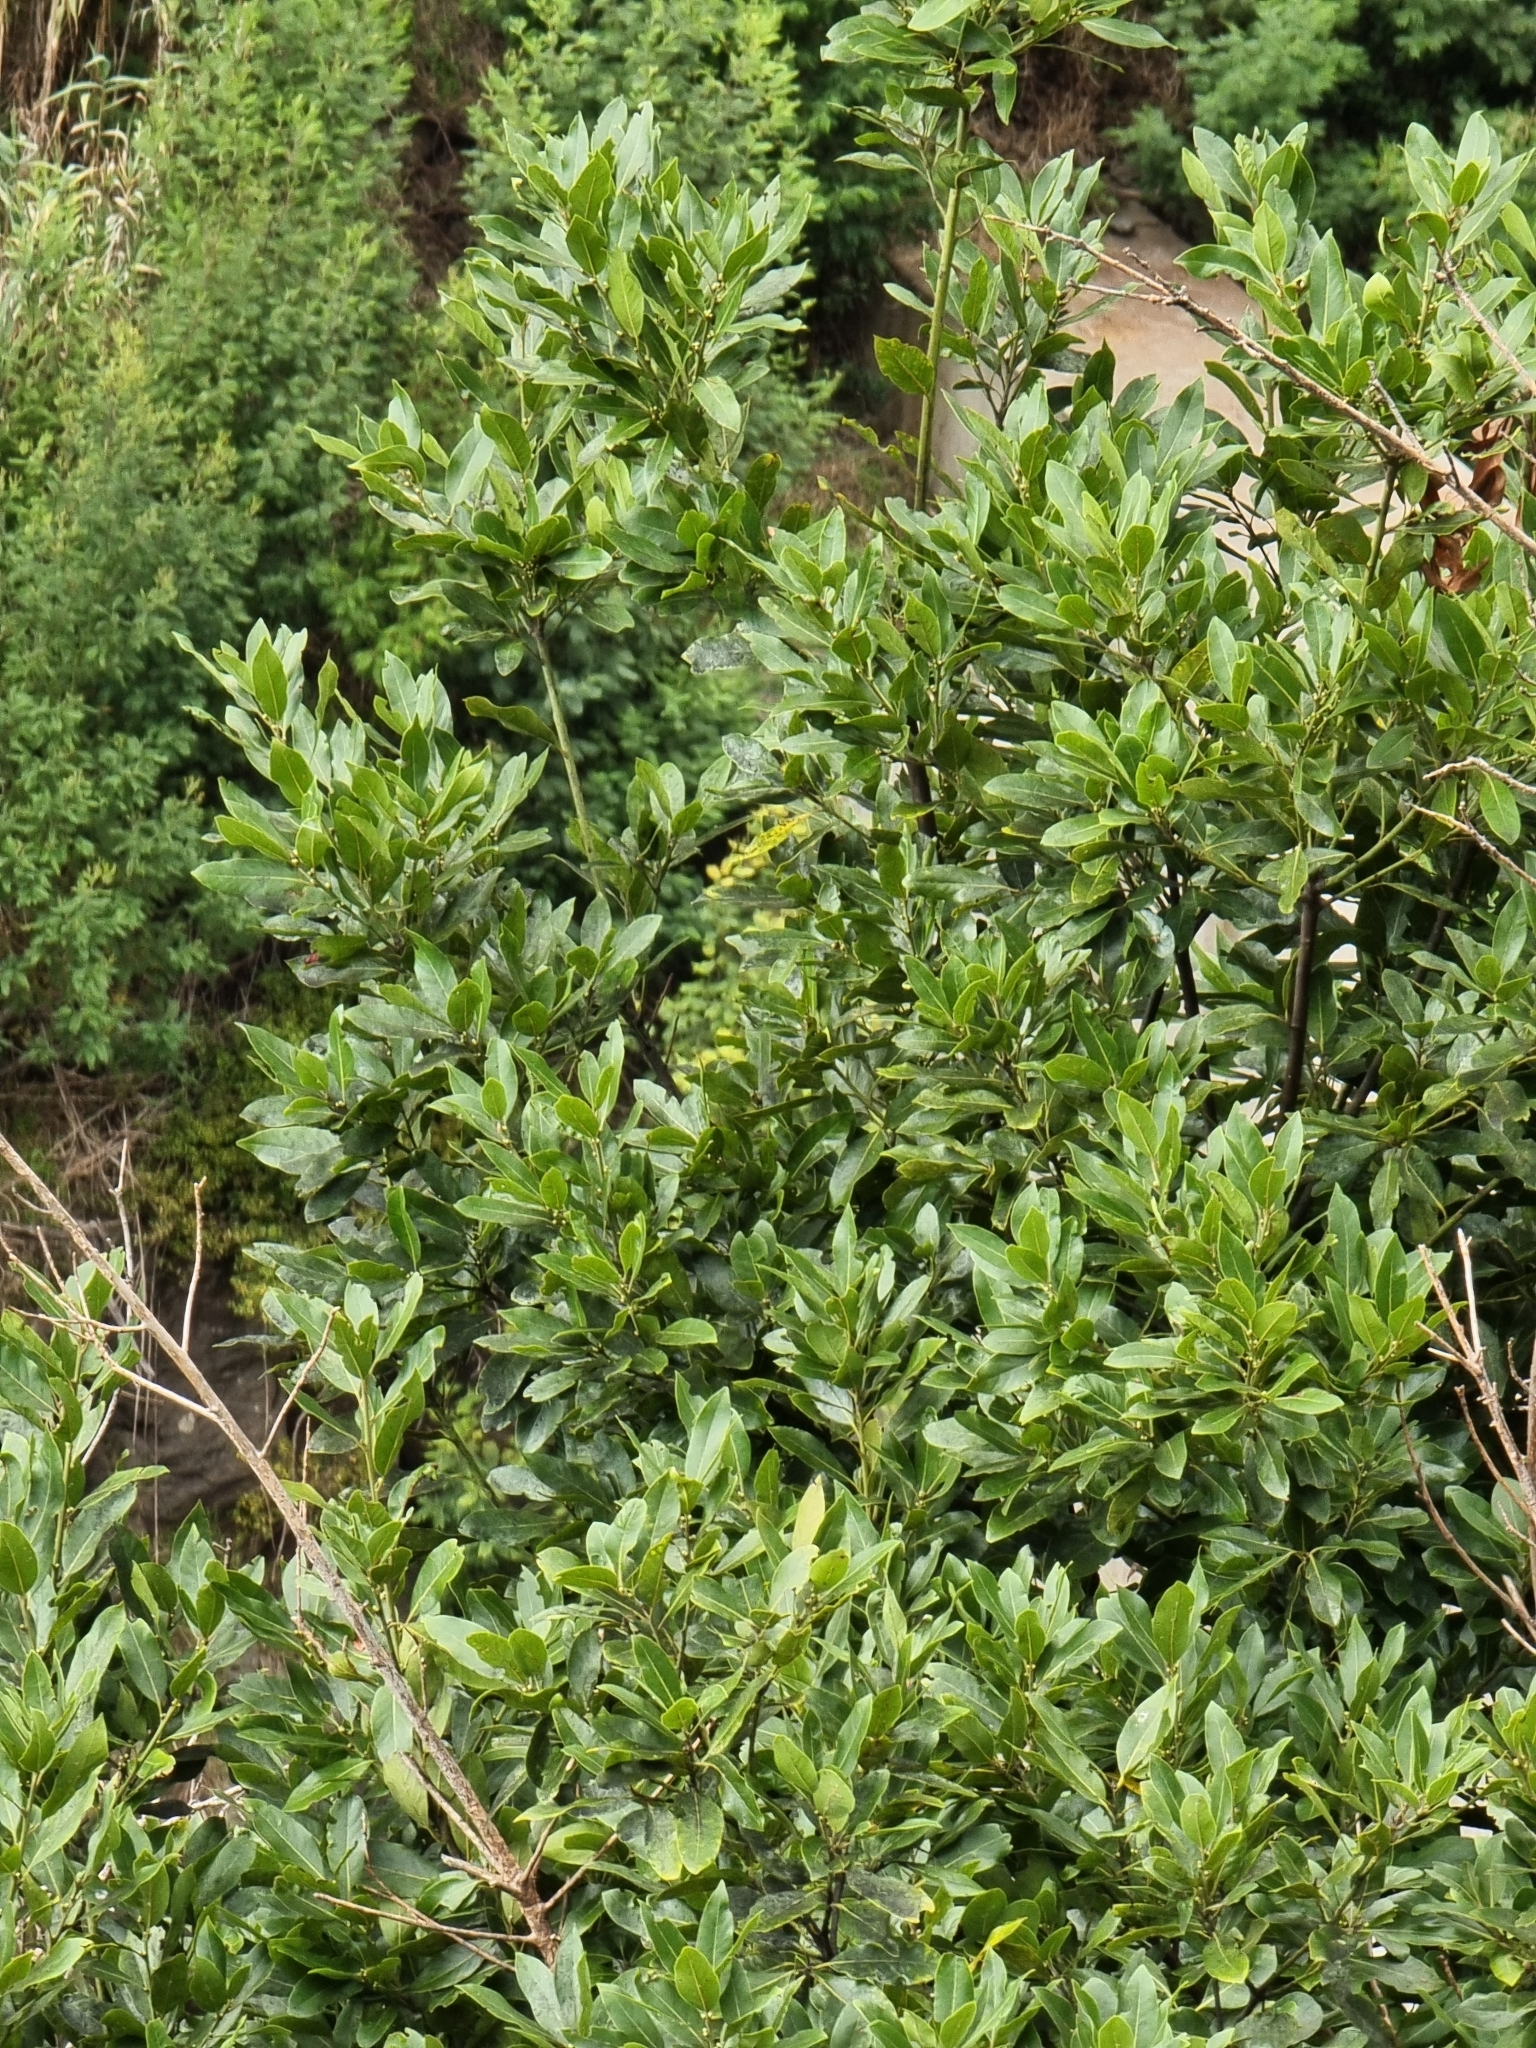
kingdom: Plantae
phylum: Tracheophyta
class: Magnoliopsida
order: Laurales
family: Lauraceae
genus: Laurus
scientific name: Laurus novocanariensis
